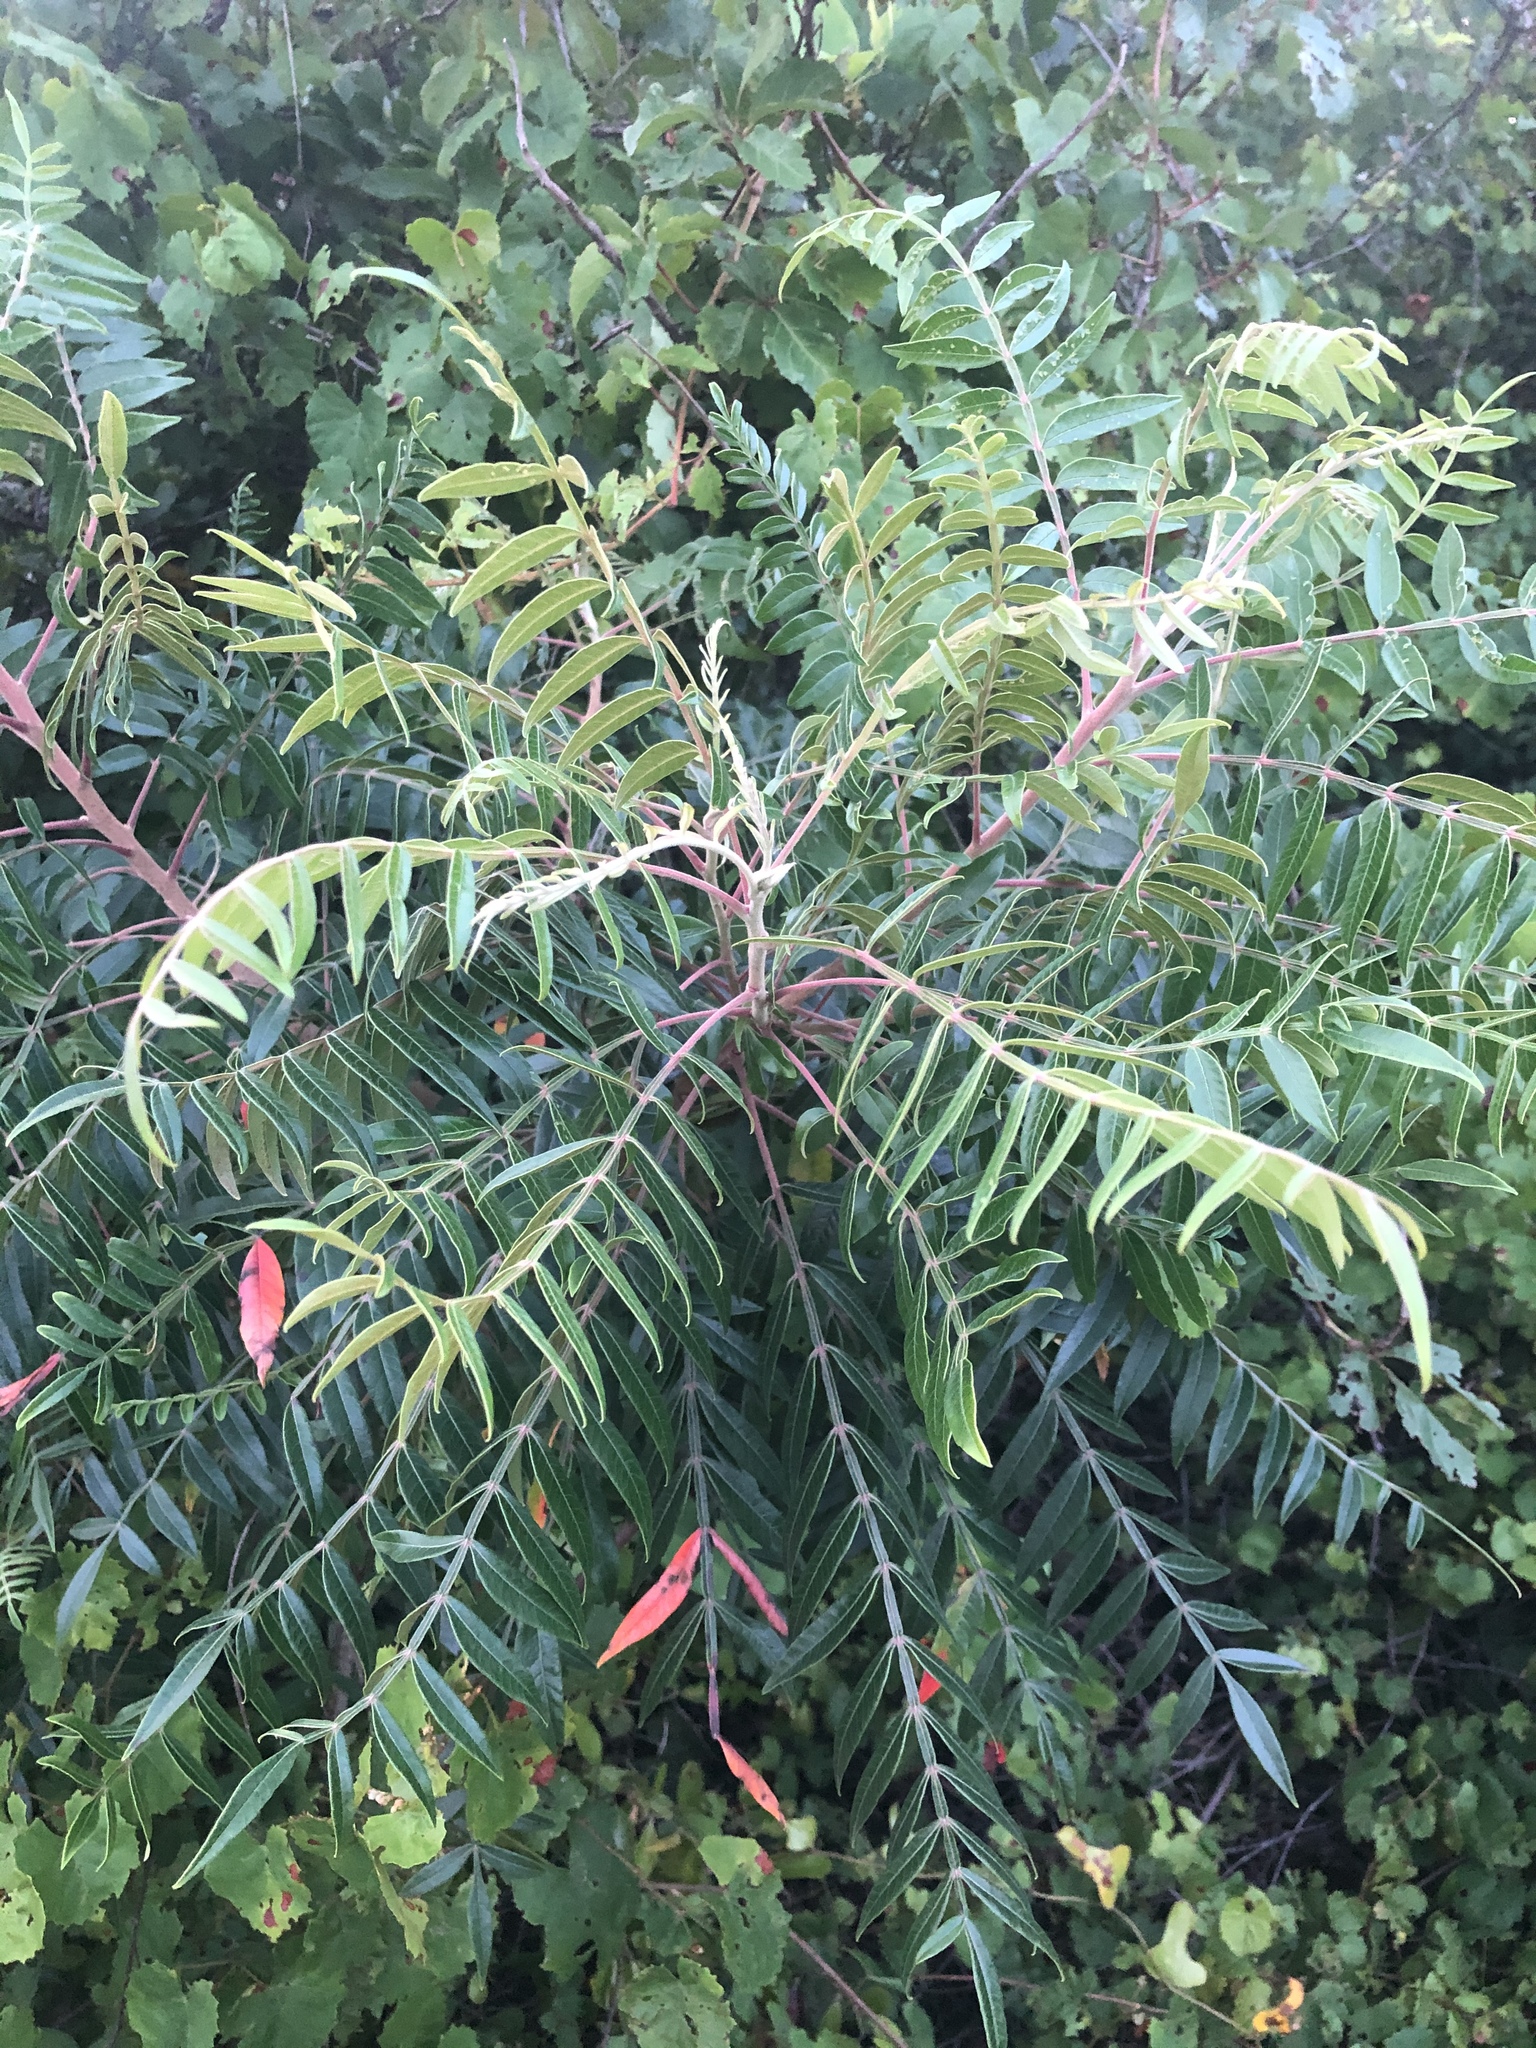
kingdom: Plantae
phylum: Tracheophyta
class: Magnoliopsida
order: Sapindales
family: Anacardiaceae
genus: Rhus
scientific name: Rhus copallina
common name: Shining sumac
